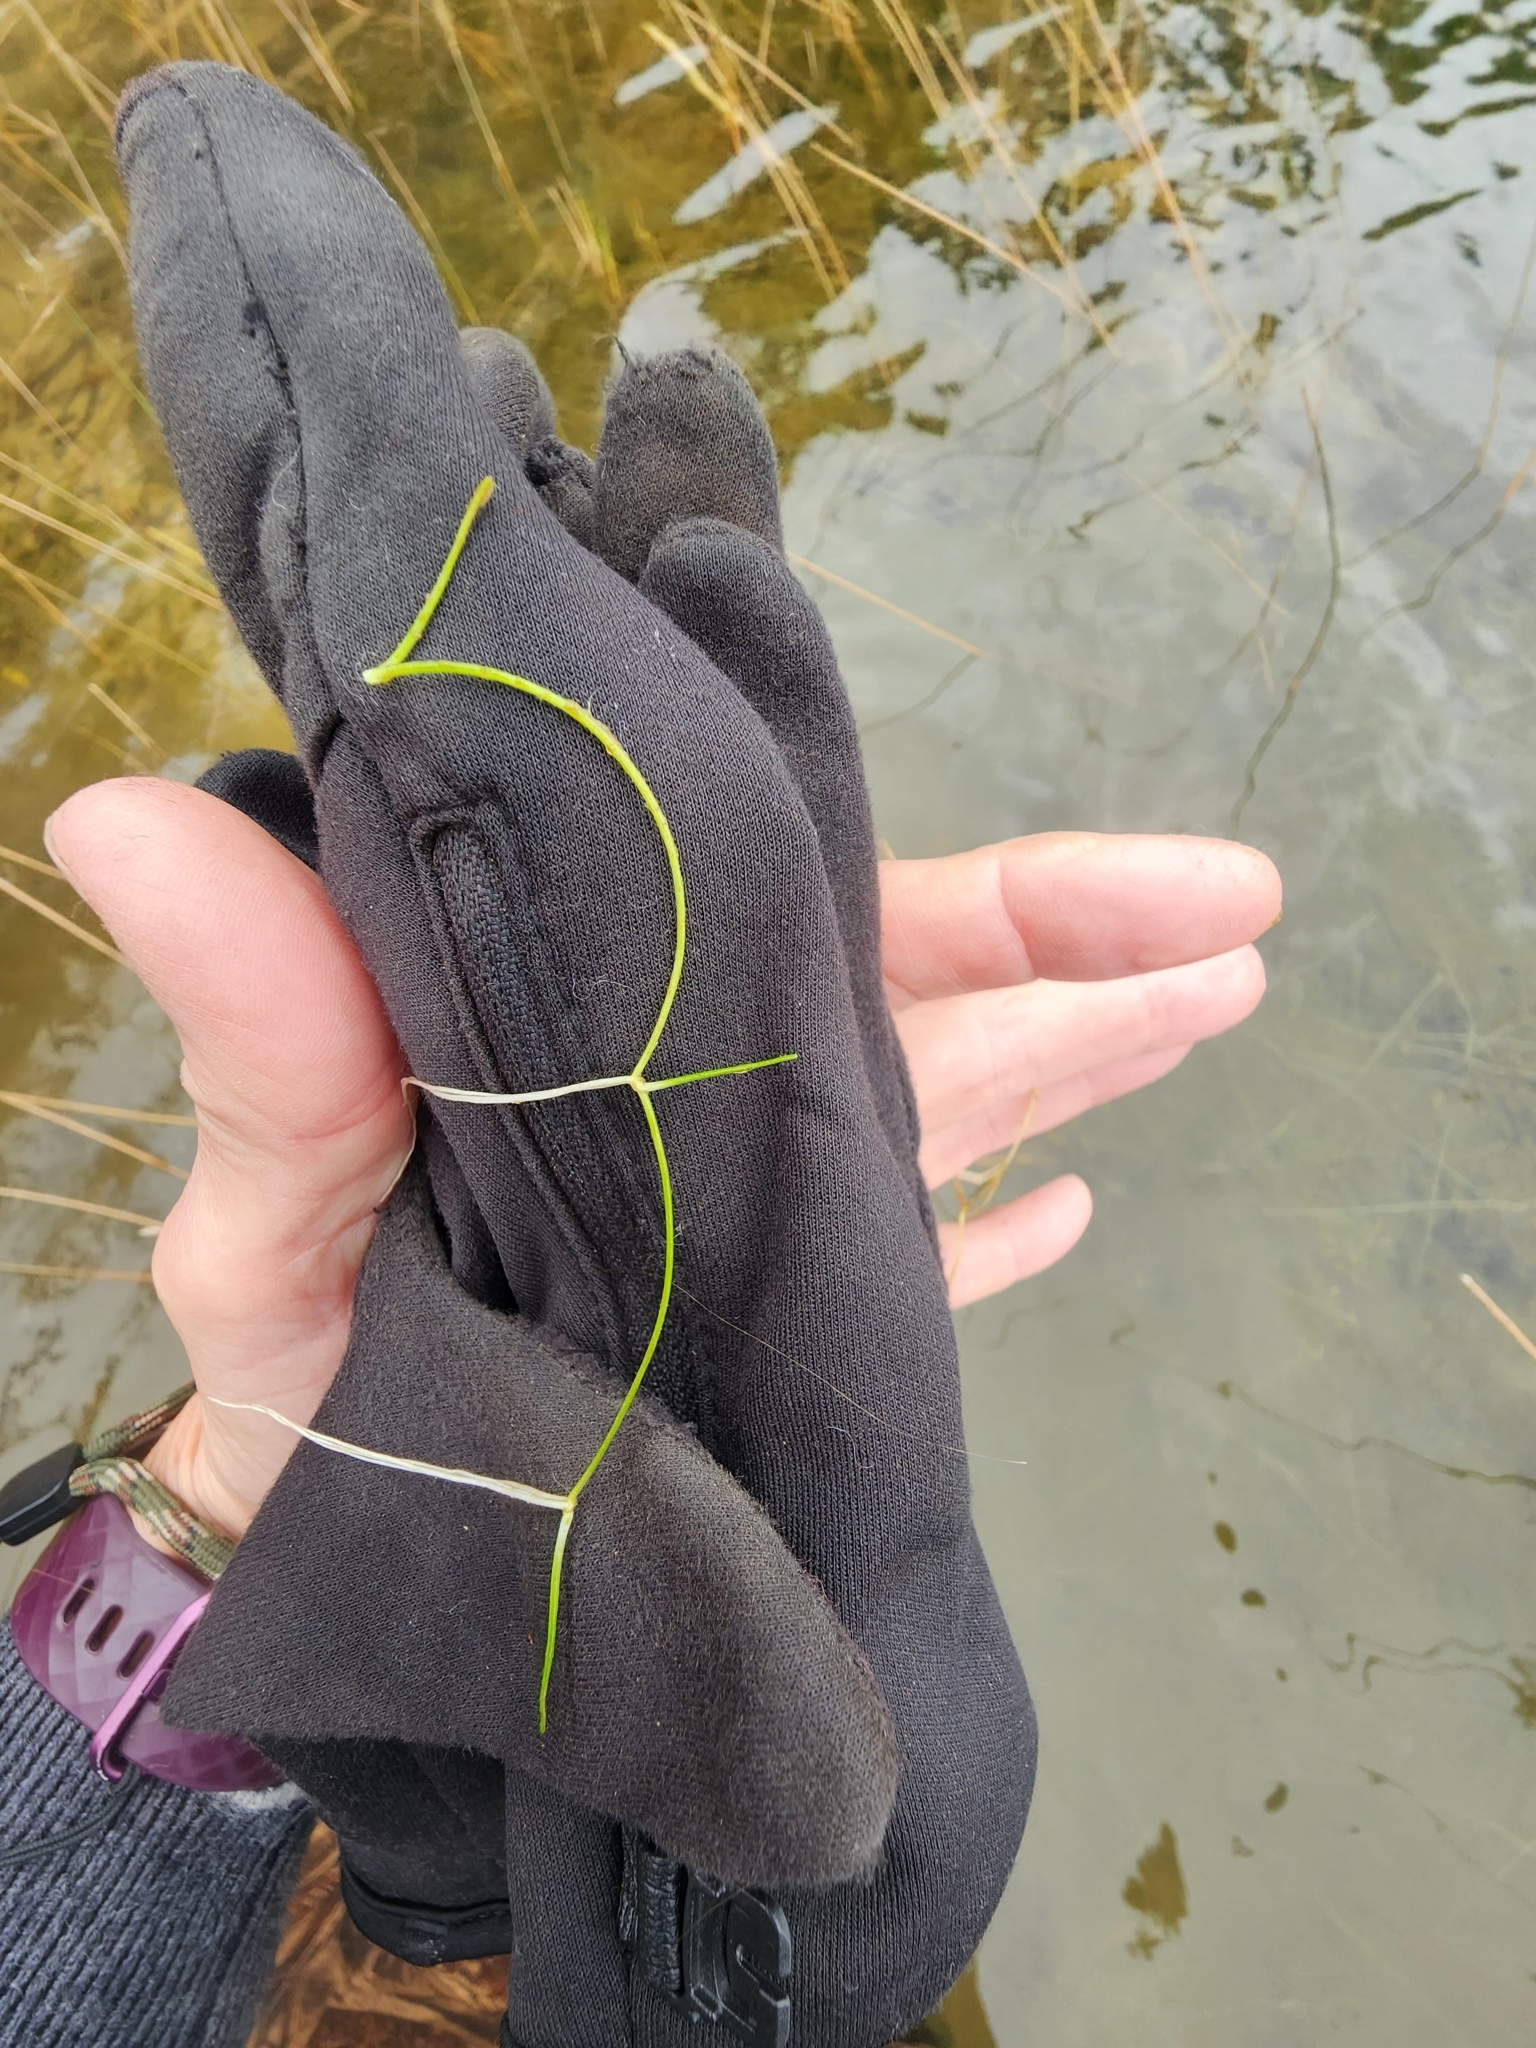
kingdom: Plantae
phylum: Tracheophyta
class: Magnoliopsida
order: Lamiales
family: Plantaginaceae
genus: Littorella
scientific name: Littorella americana
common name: American littorella
